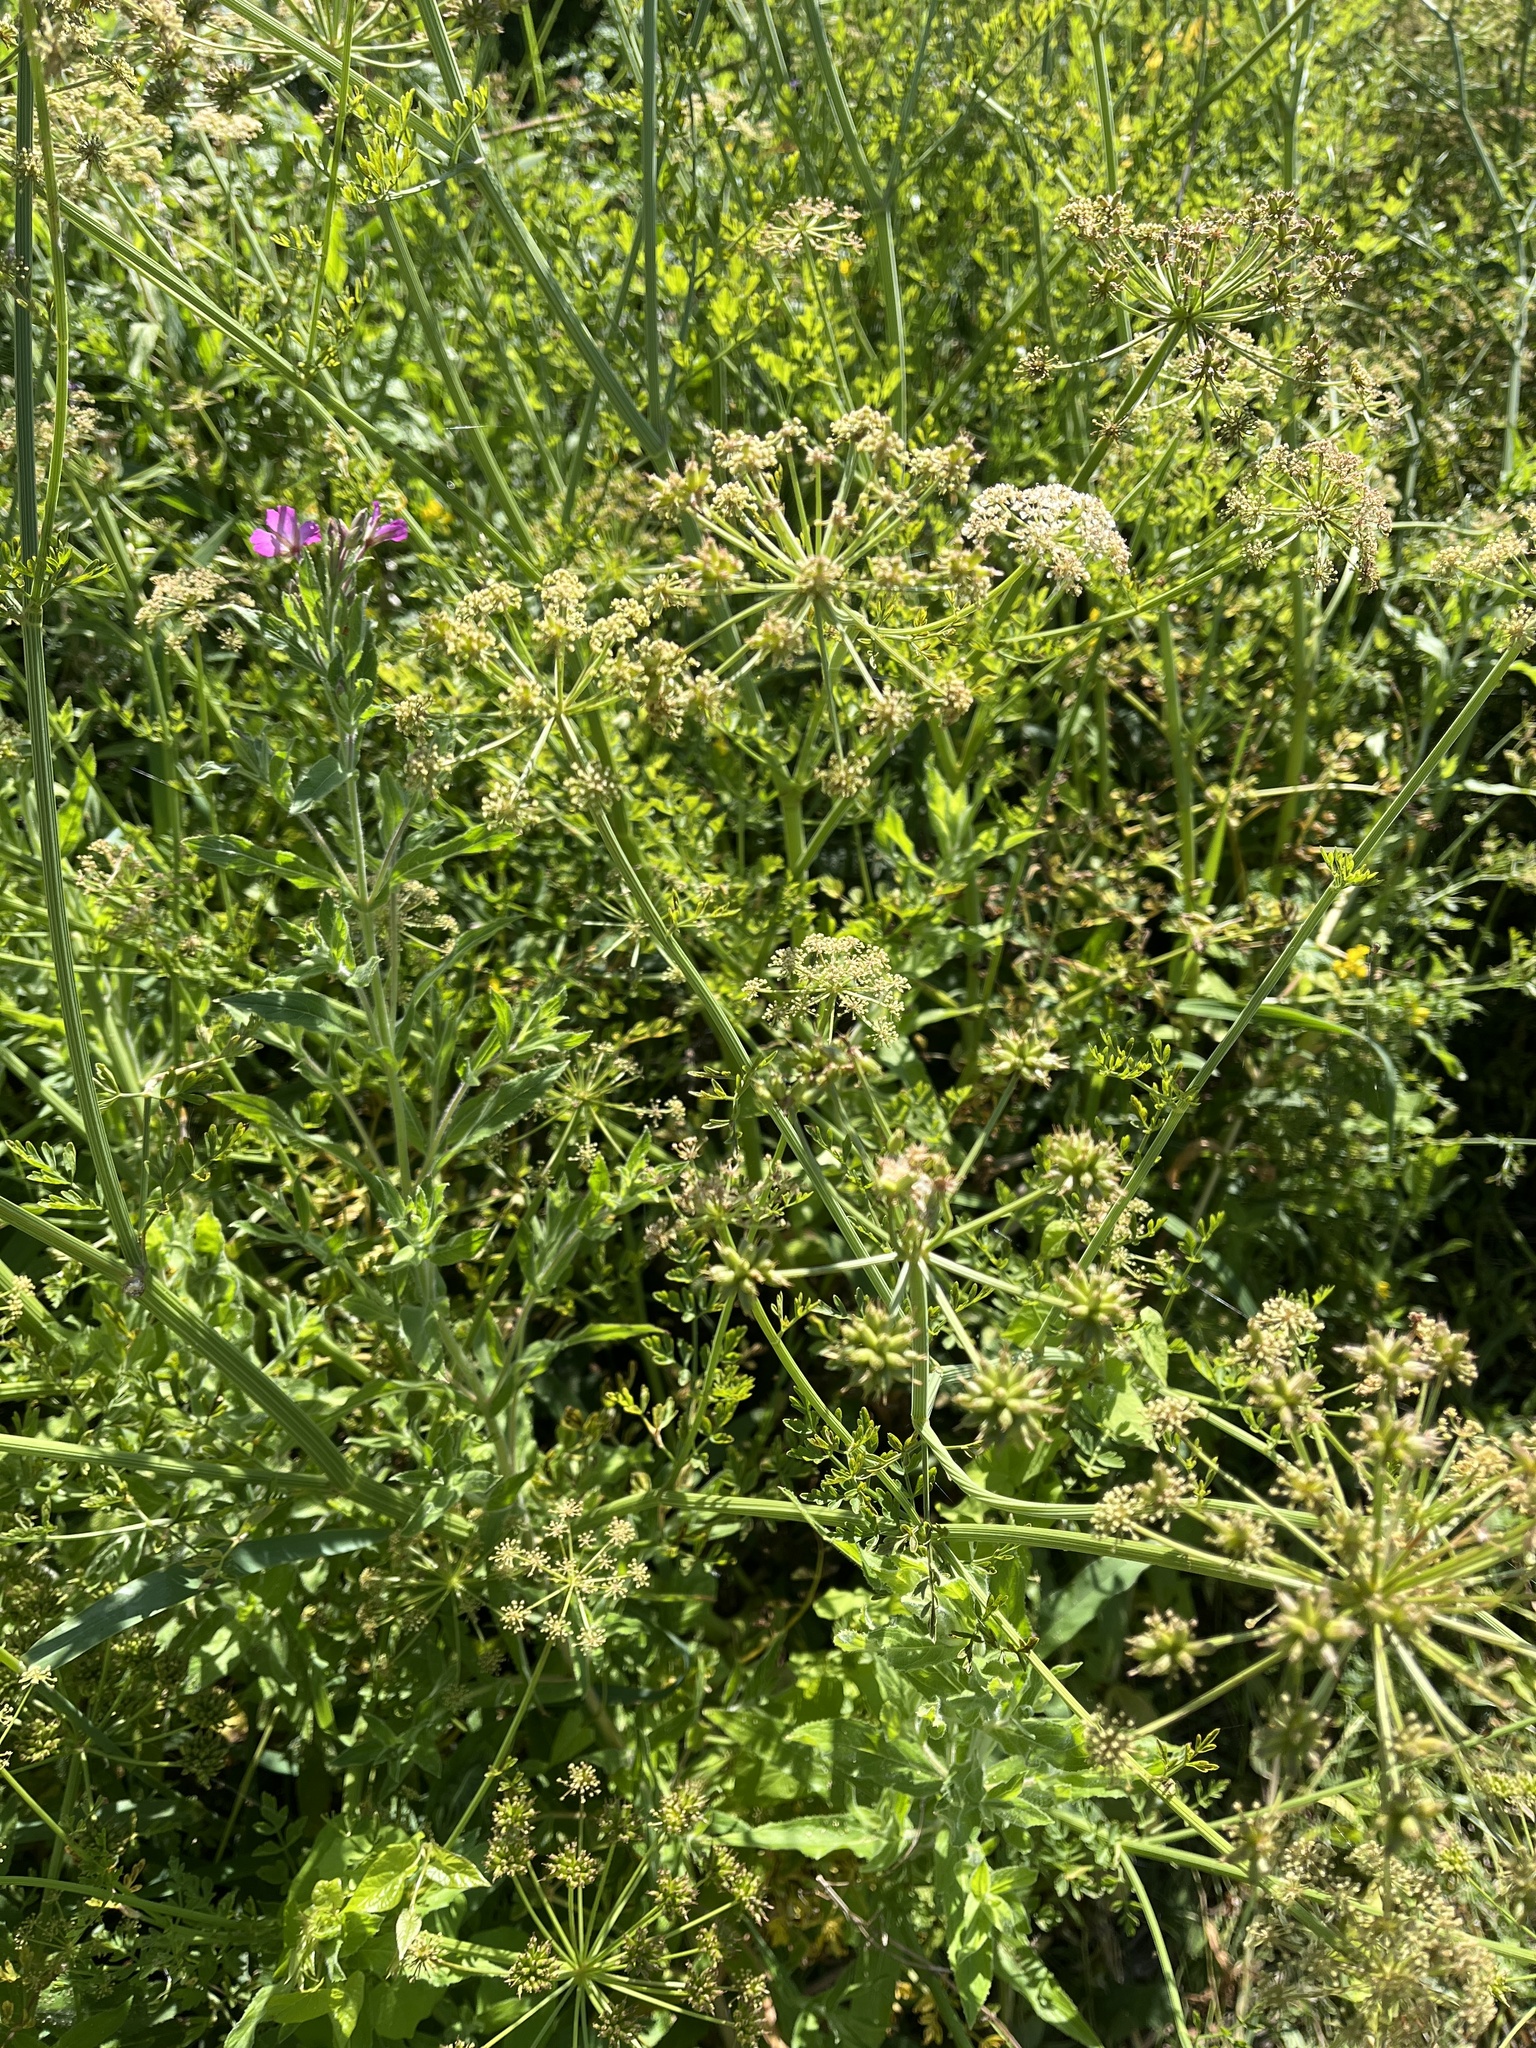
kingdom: Plantae
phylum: Tracheophyta
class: Magnoliopsida
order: Apiales
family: Apiaceae
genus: Oenanthe
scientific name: Oenanthe crocata
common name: Hemlock water-dropwort
